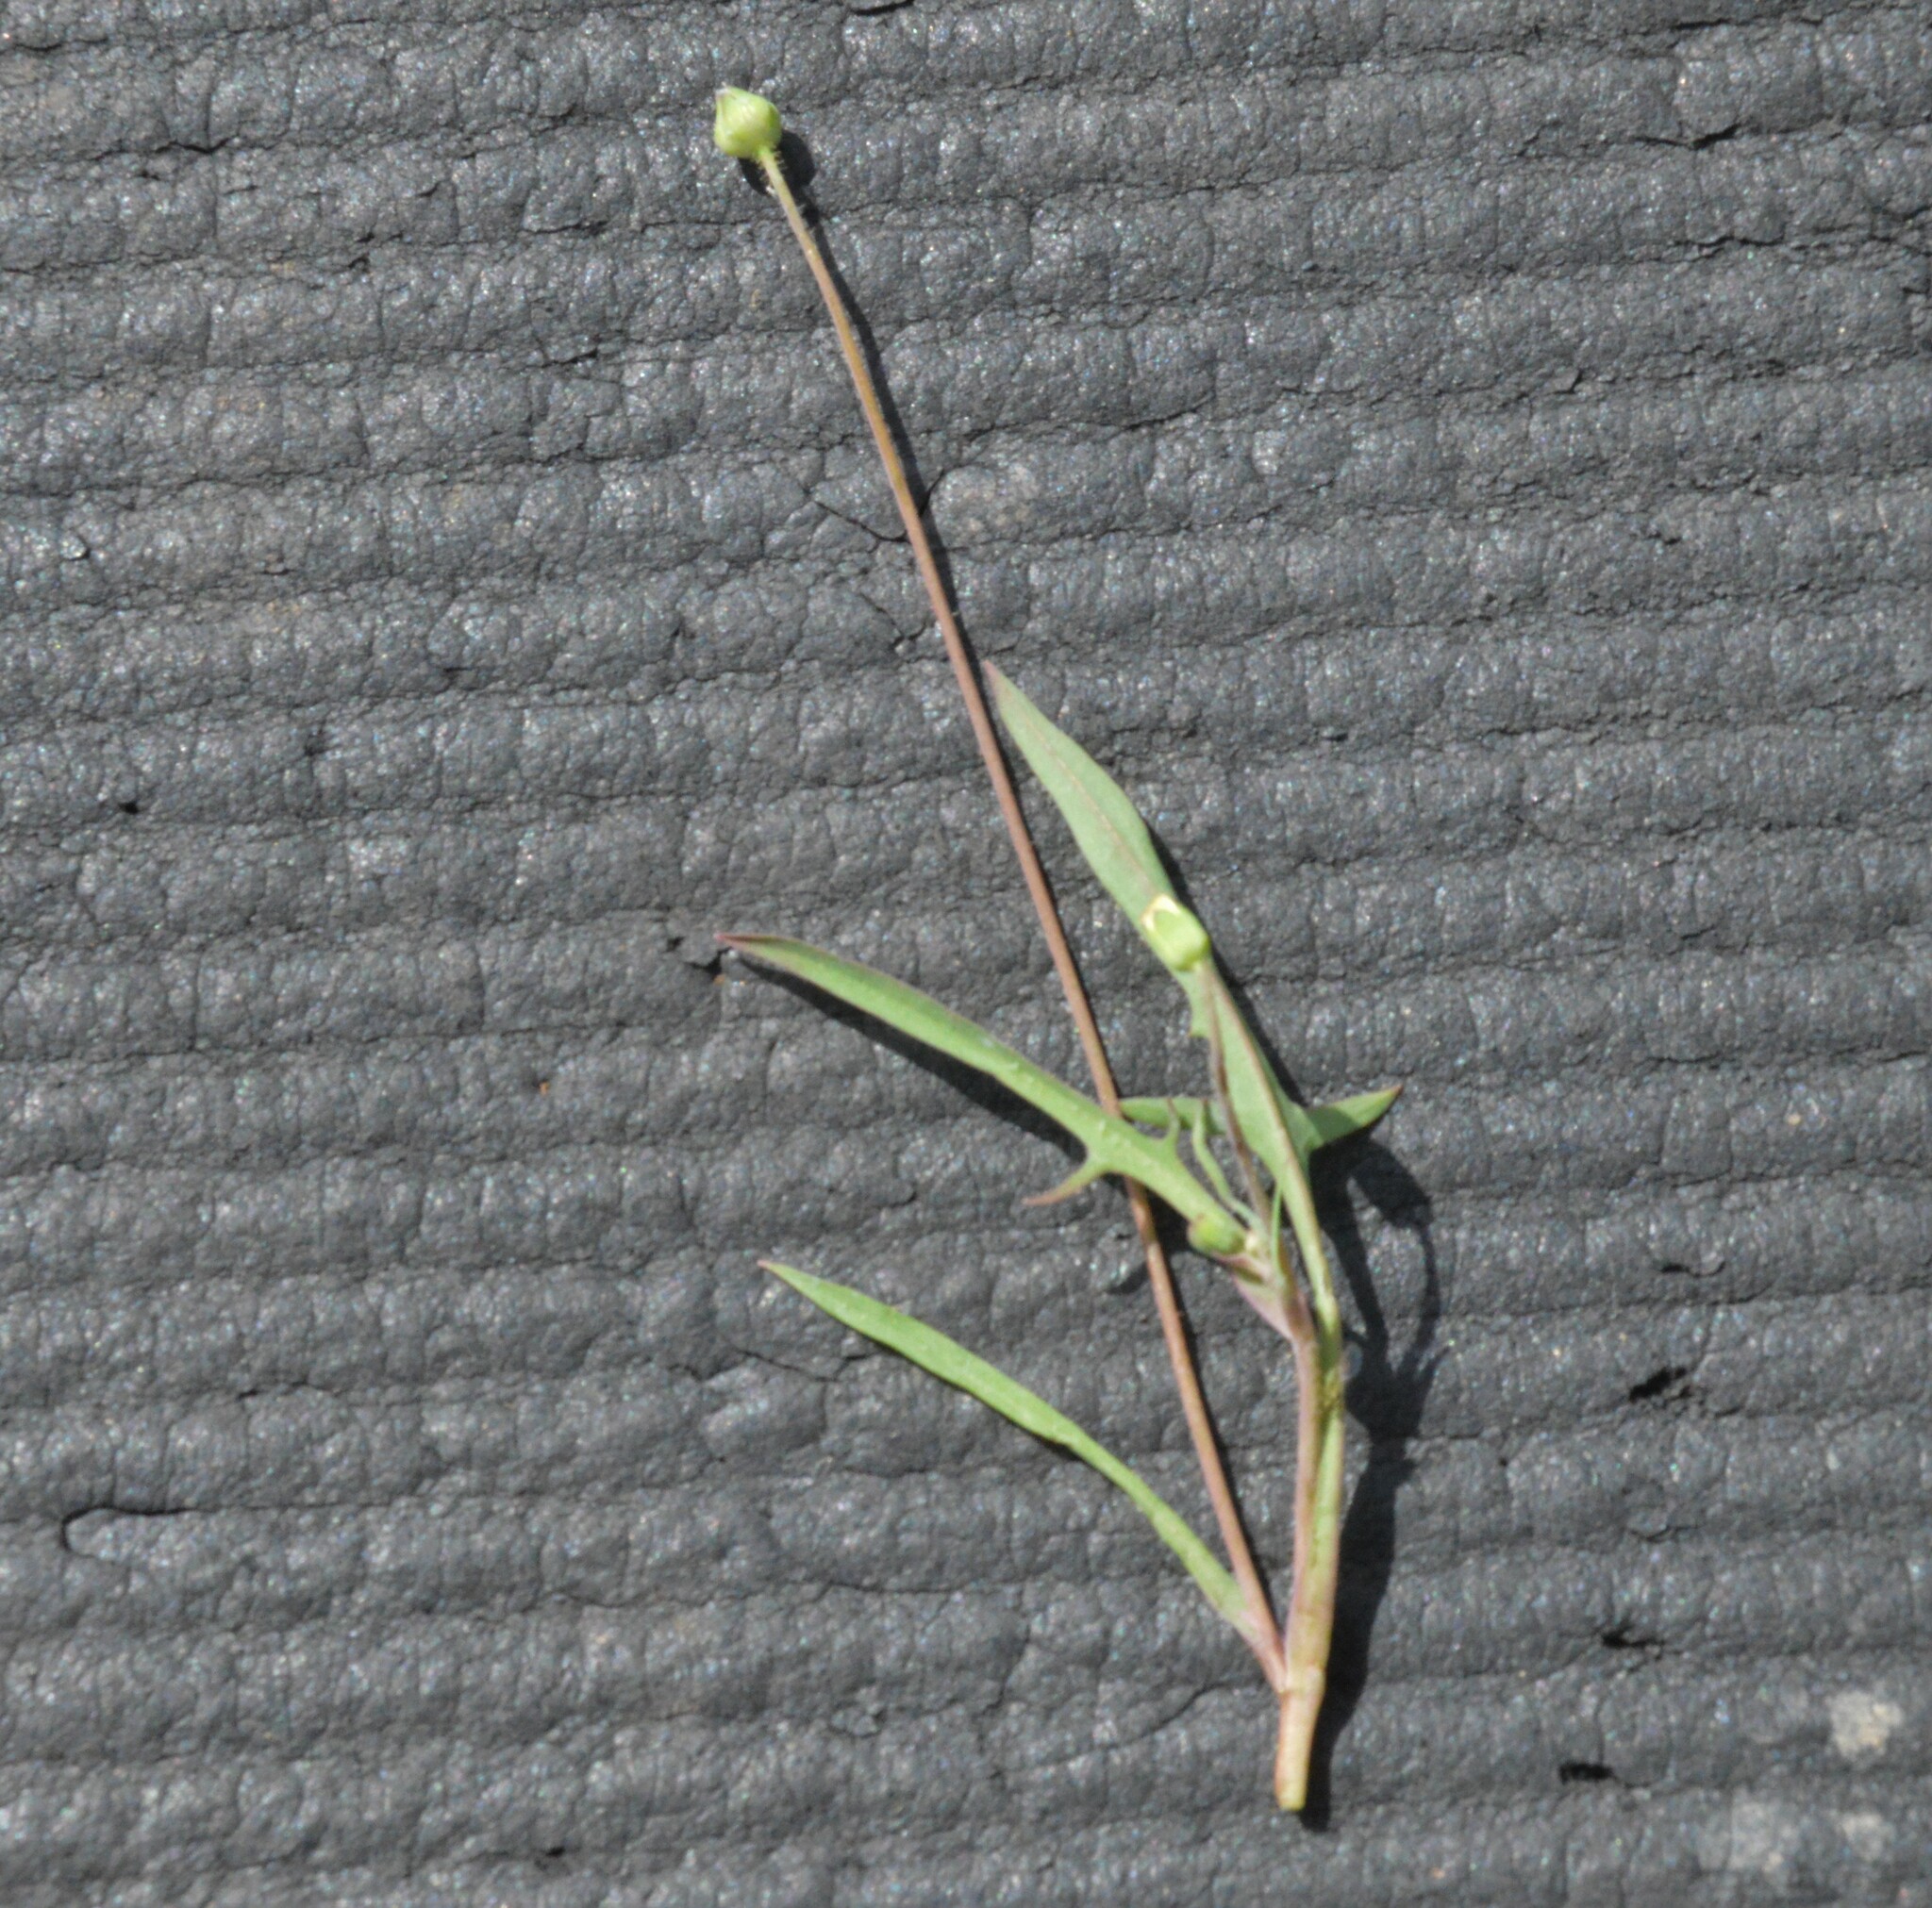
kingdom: Plantae
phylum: Tracheophyta
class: Magnoliopsida
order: Asterales
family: Asteraceae
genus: Krigia
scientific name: Krigia cespitosa
